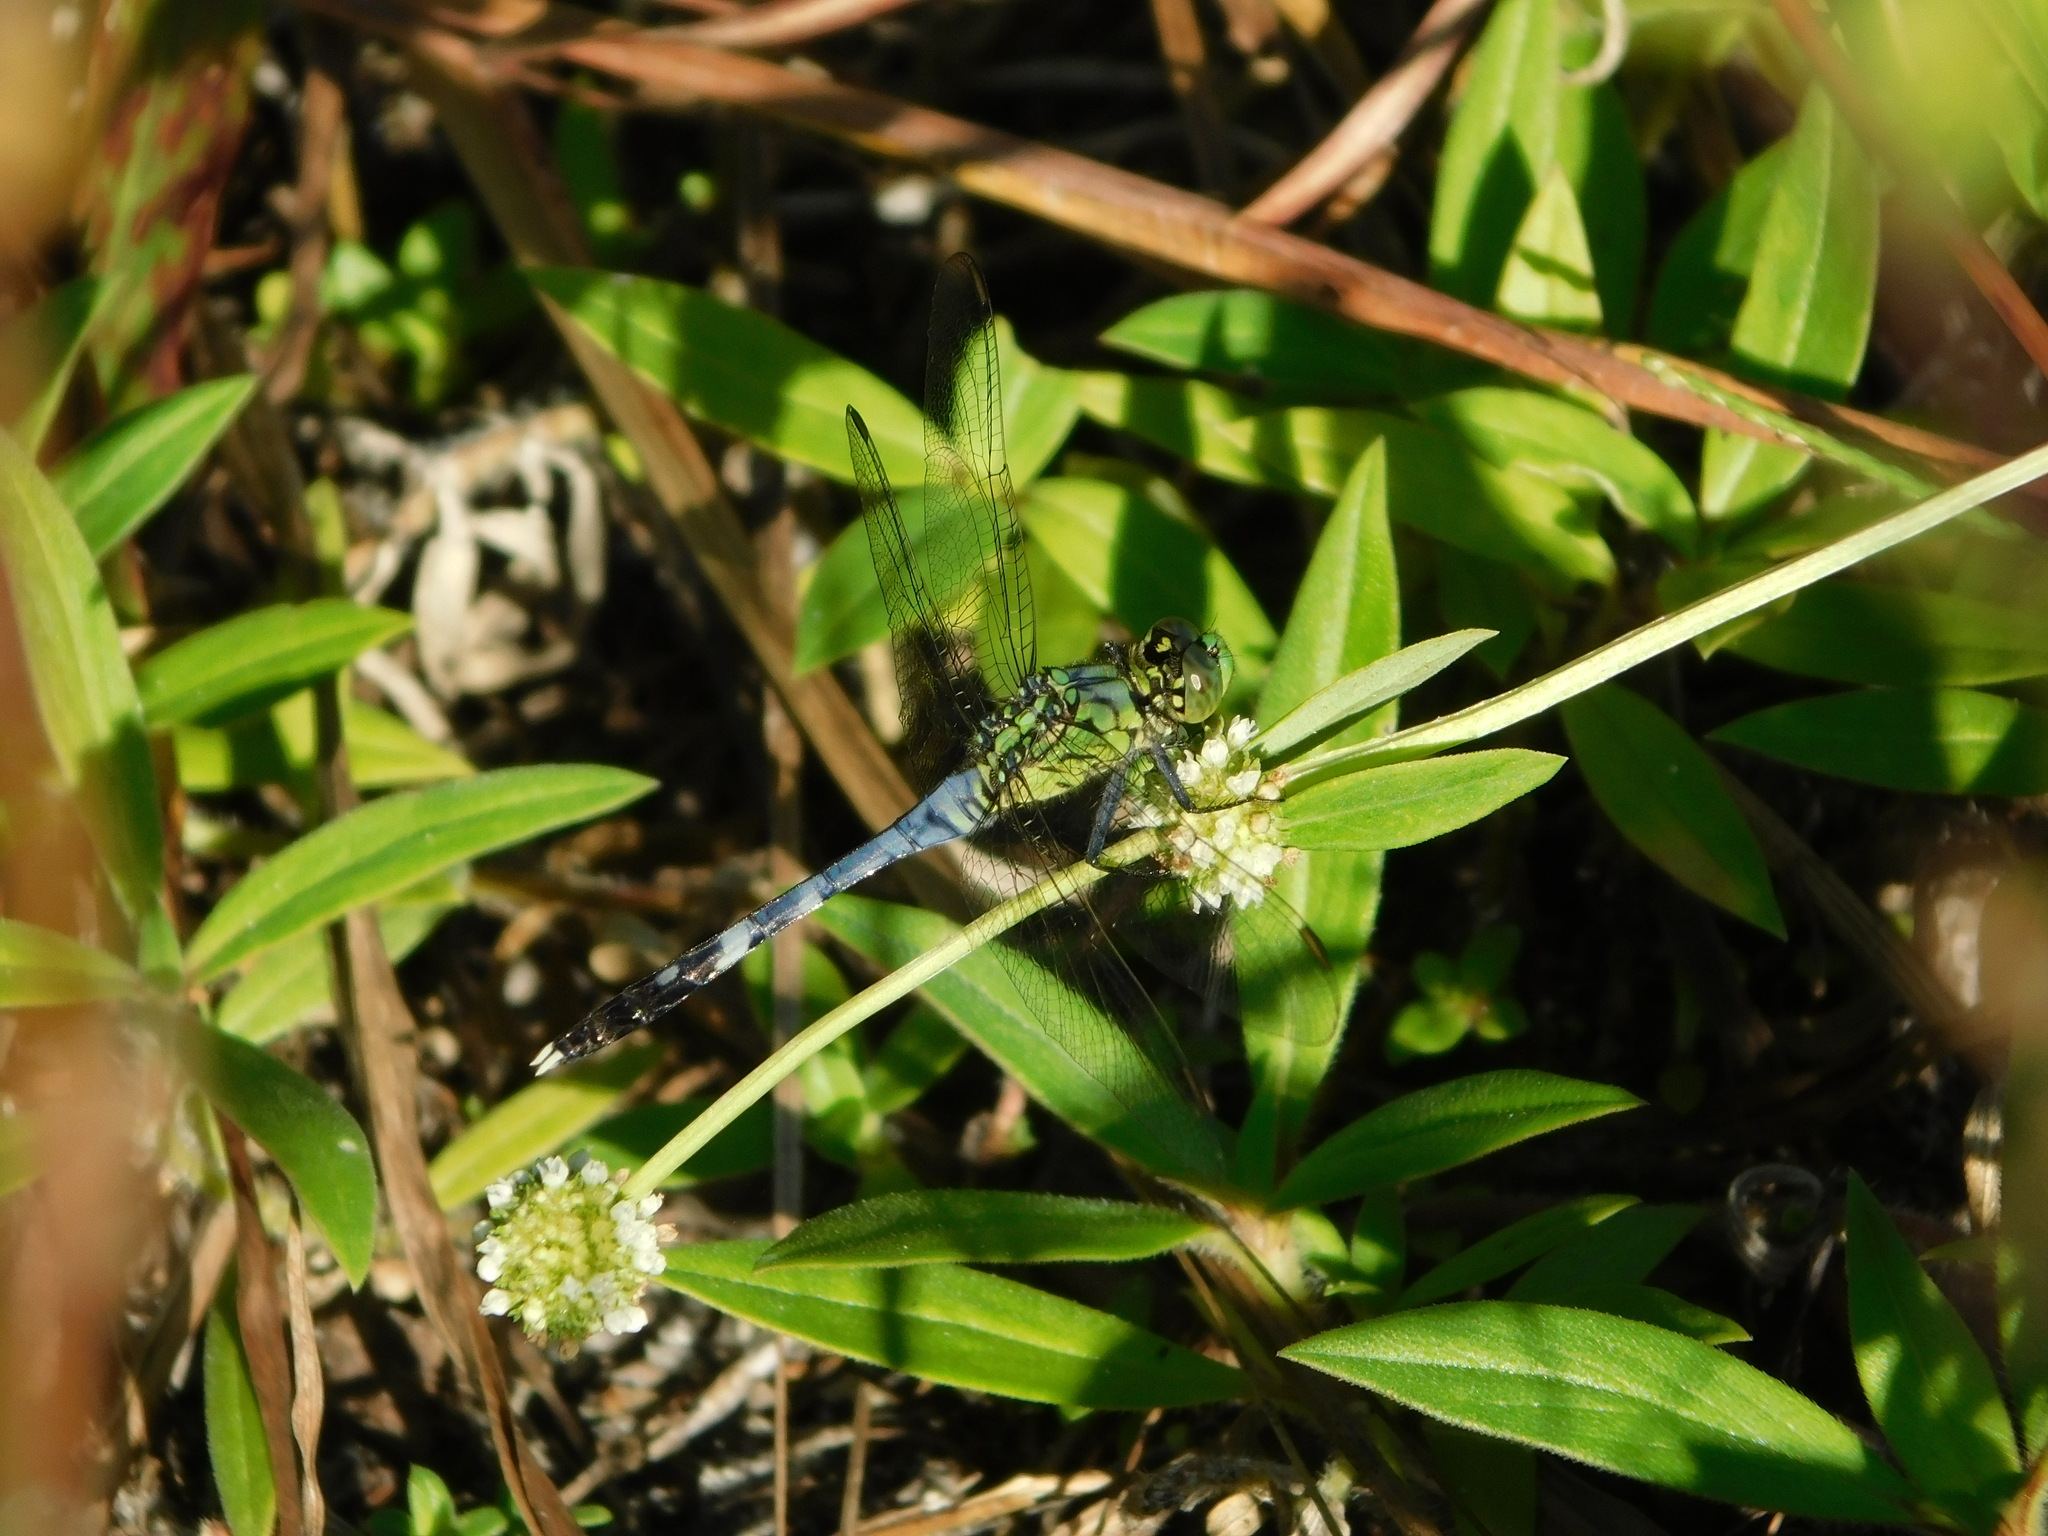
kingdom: Animalia
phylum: Arthropoda
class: Insecta
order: Odonata
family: Libellulidae
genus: Erythemis
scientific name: Erythemis simplicicollis
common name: Eastern pondhawk
